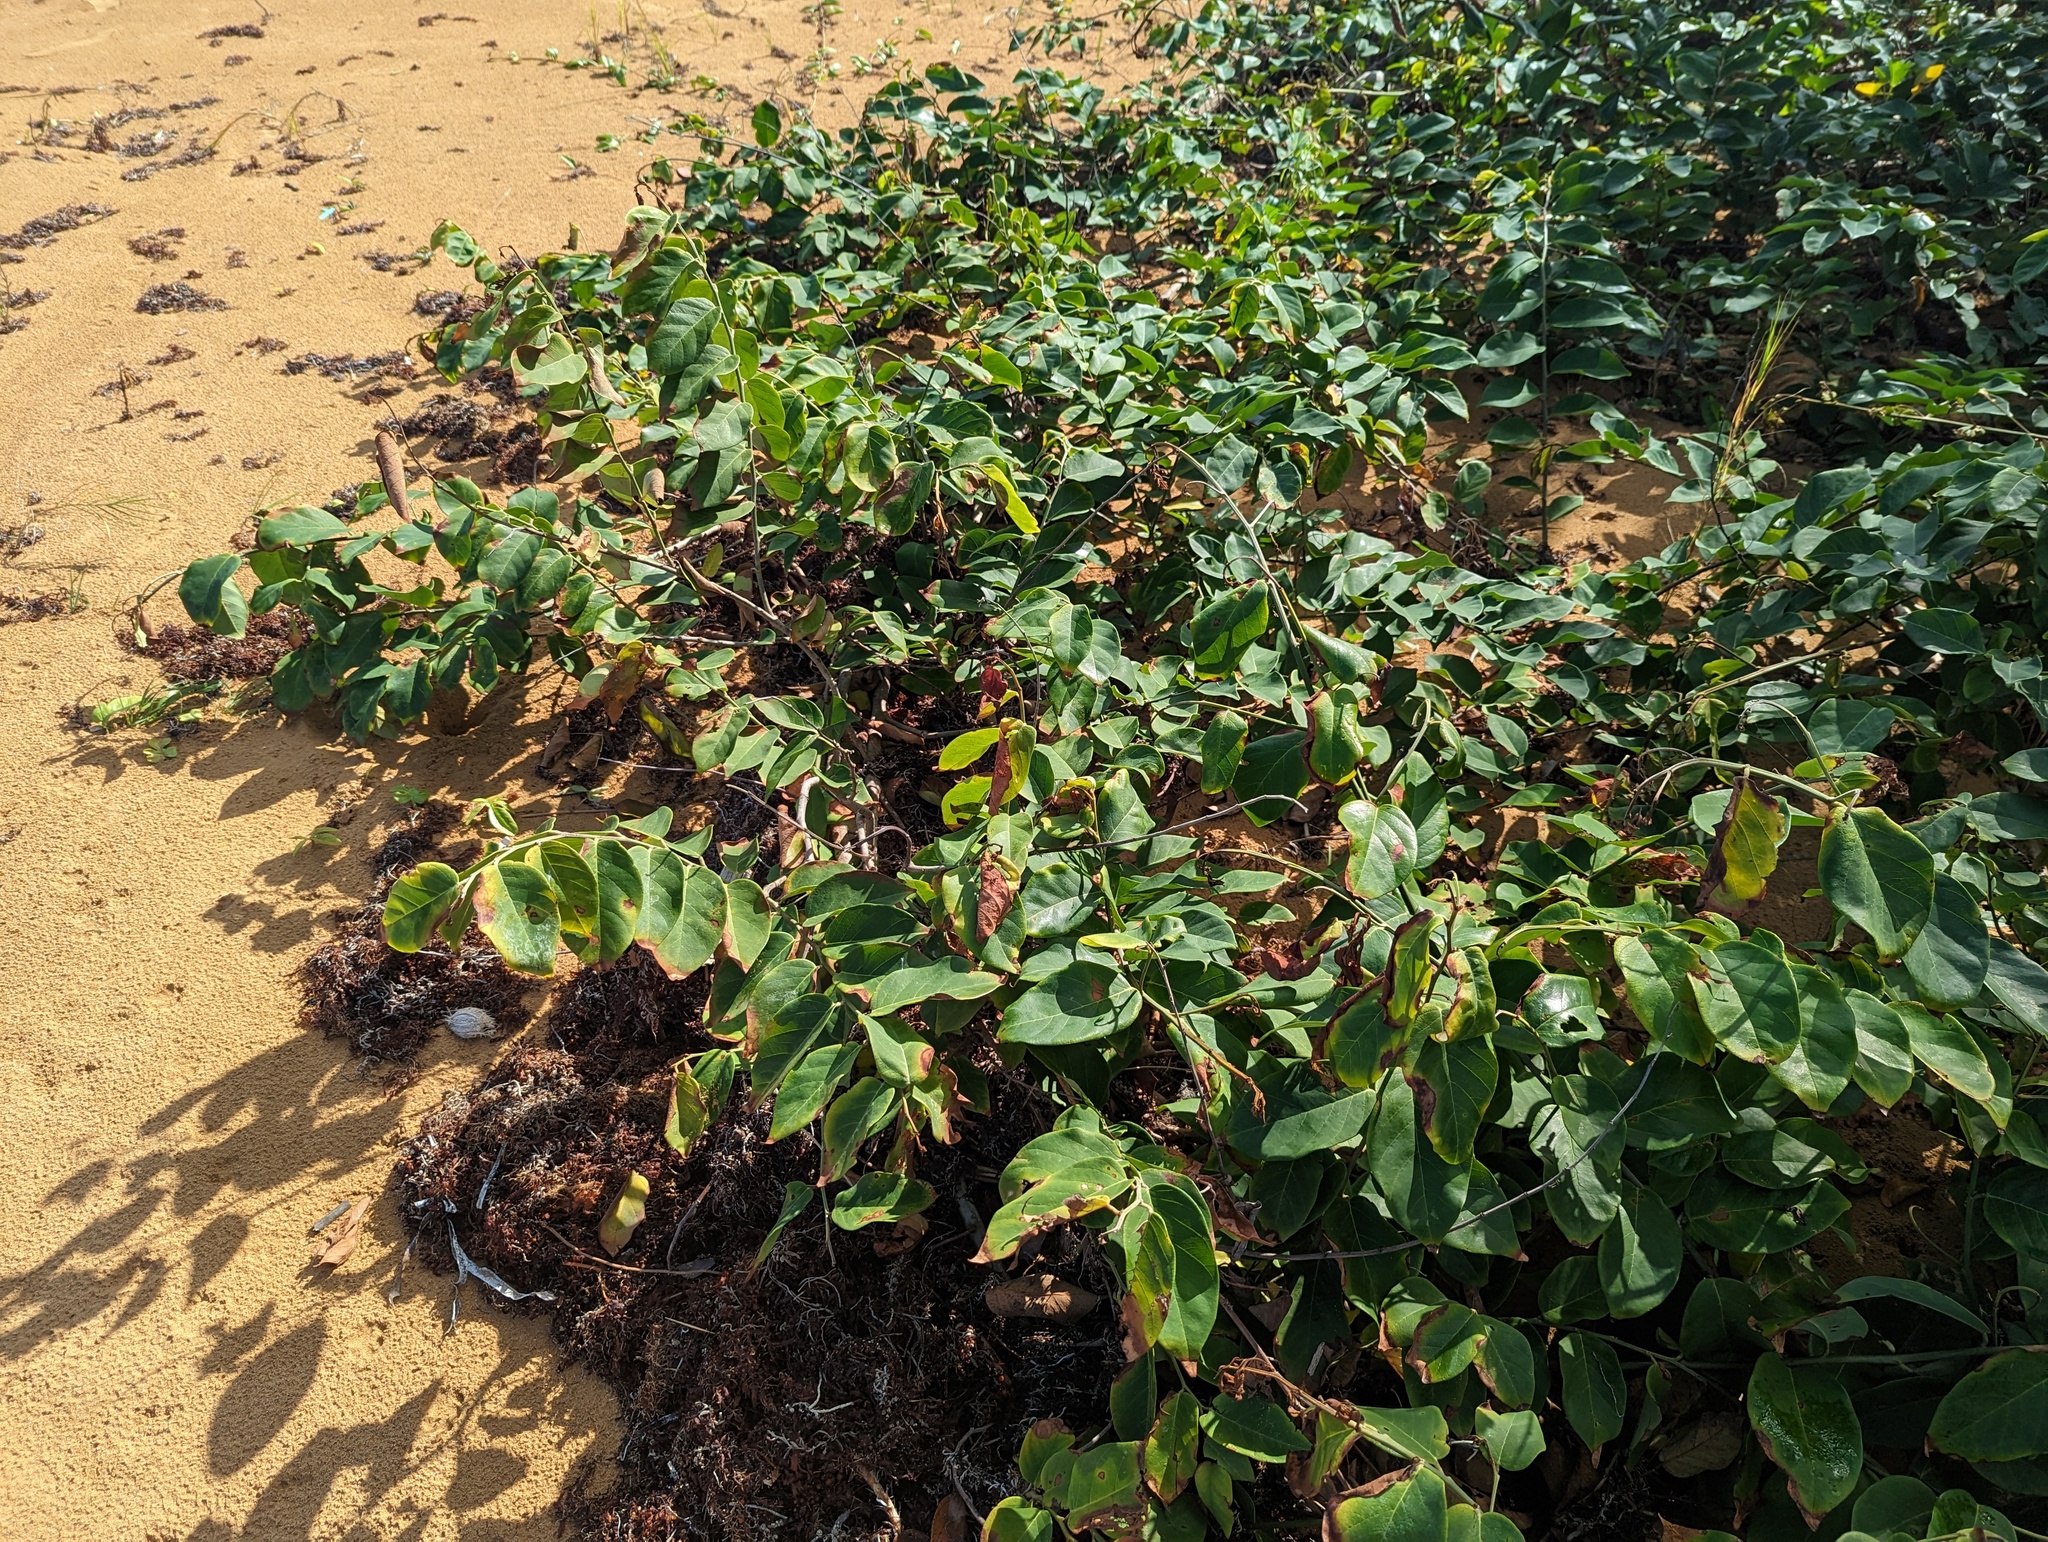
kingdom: Plantae
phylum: Tracheophyta
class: Magnoliopsida
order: Fabales
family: Fabaceae
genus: Dalbergia
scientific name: Dalbergia ecastaphyllum
